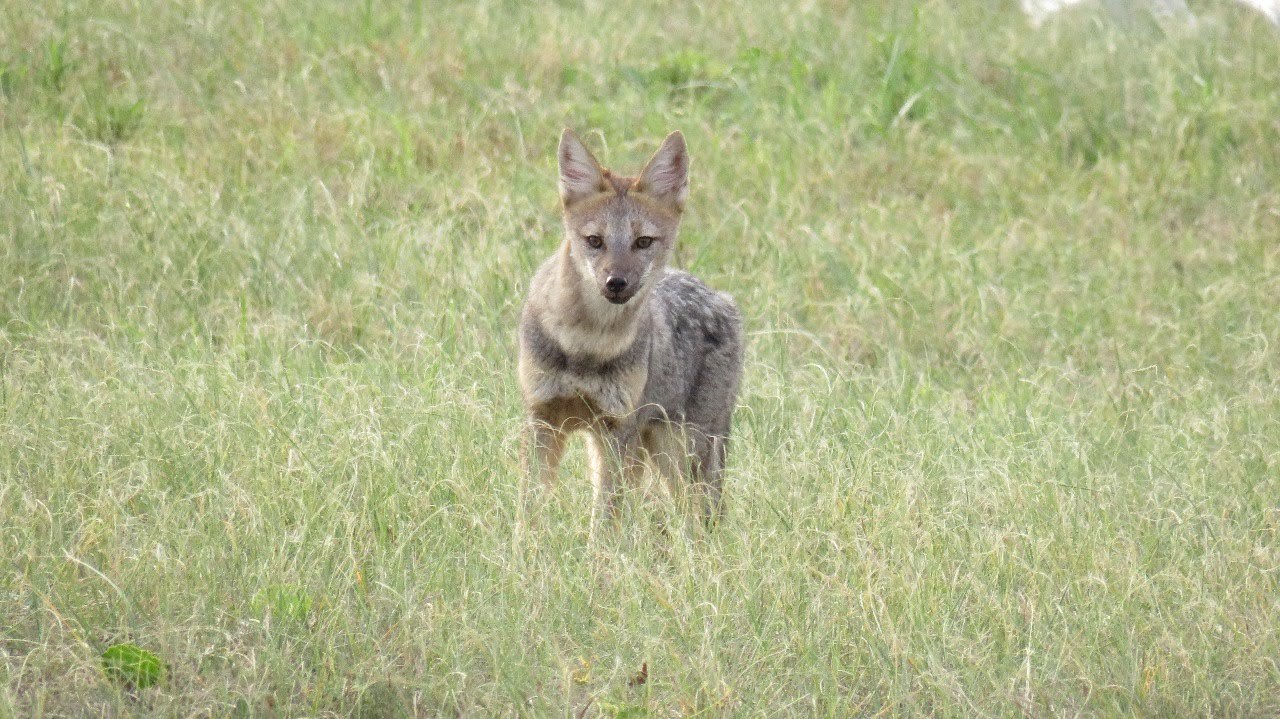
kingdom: Animalia
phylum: Chordata
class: Mammalia
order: Carnivora
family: Canidae
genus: Lycalopex
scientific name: Lycalopex gymnocercus
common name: Pampas fox
